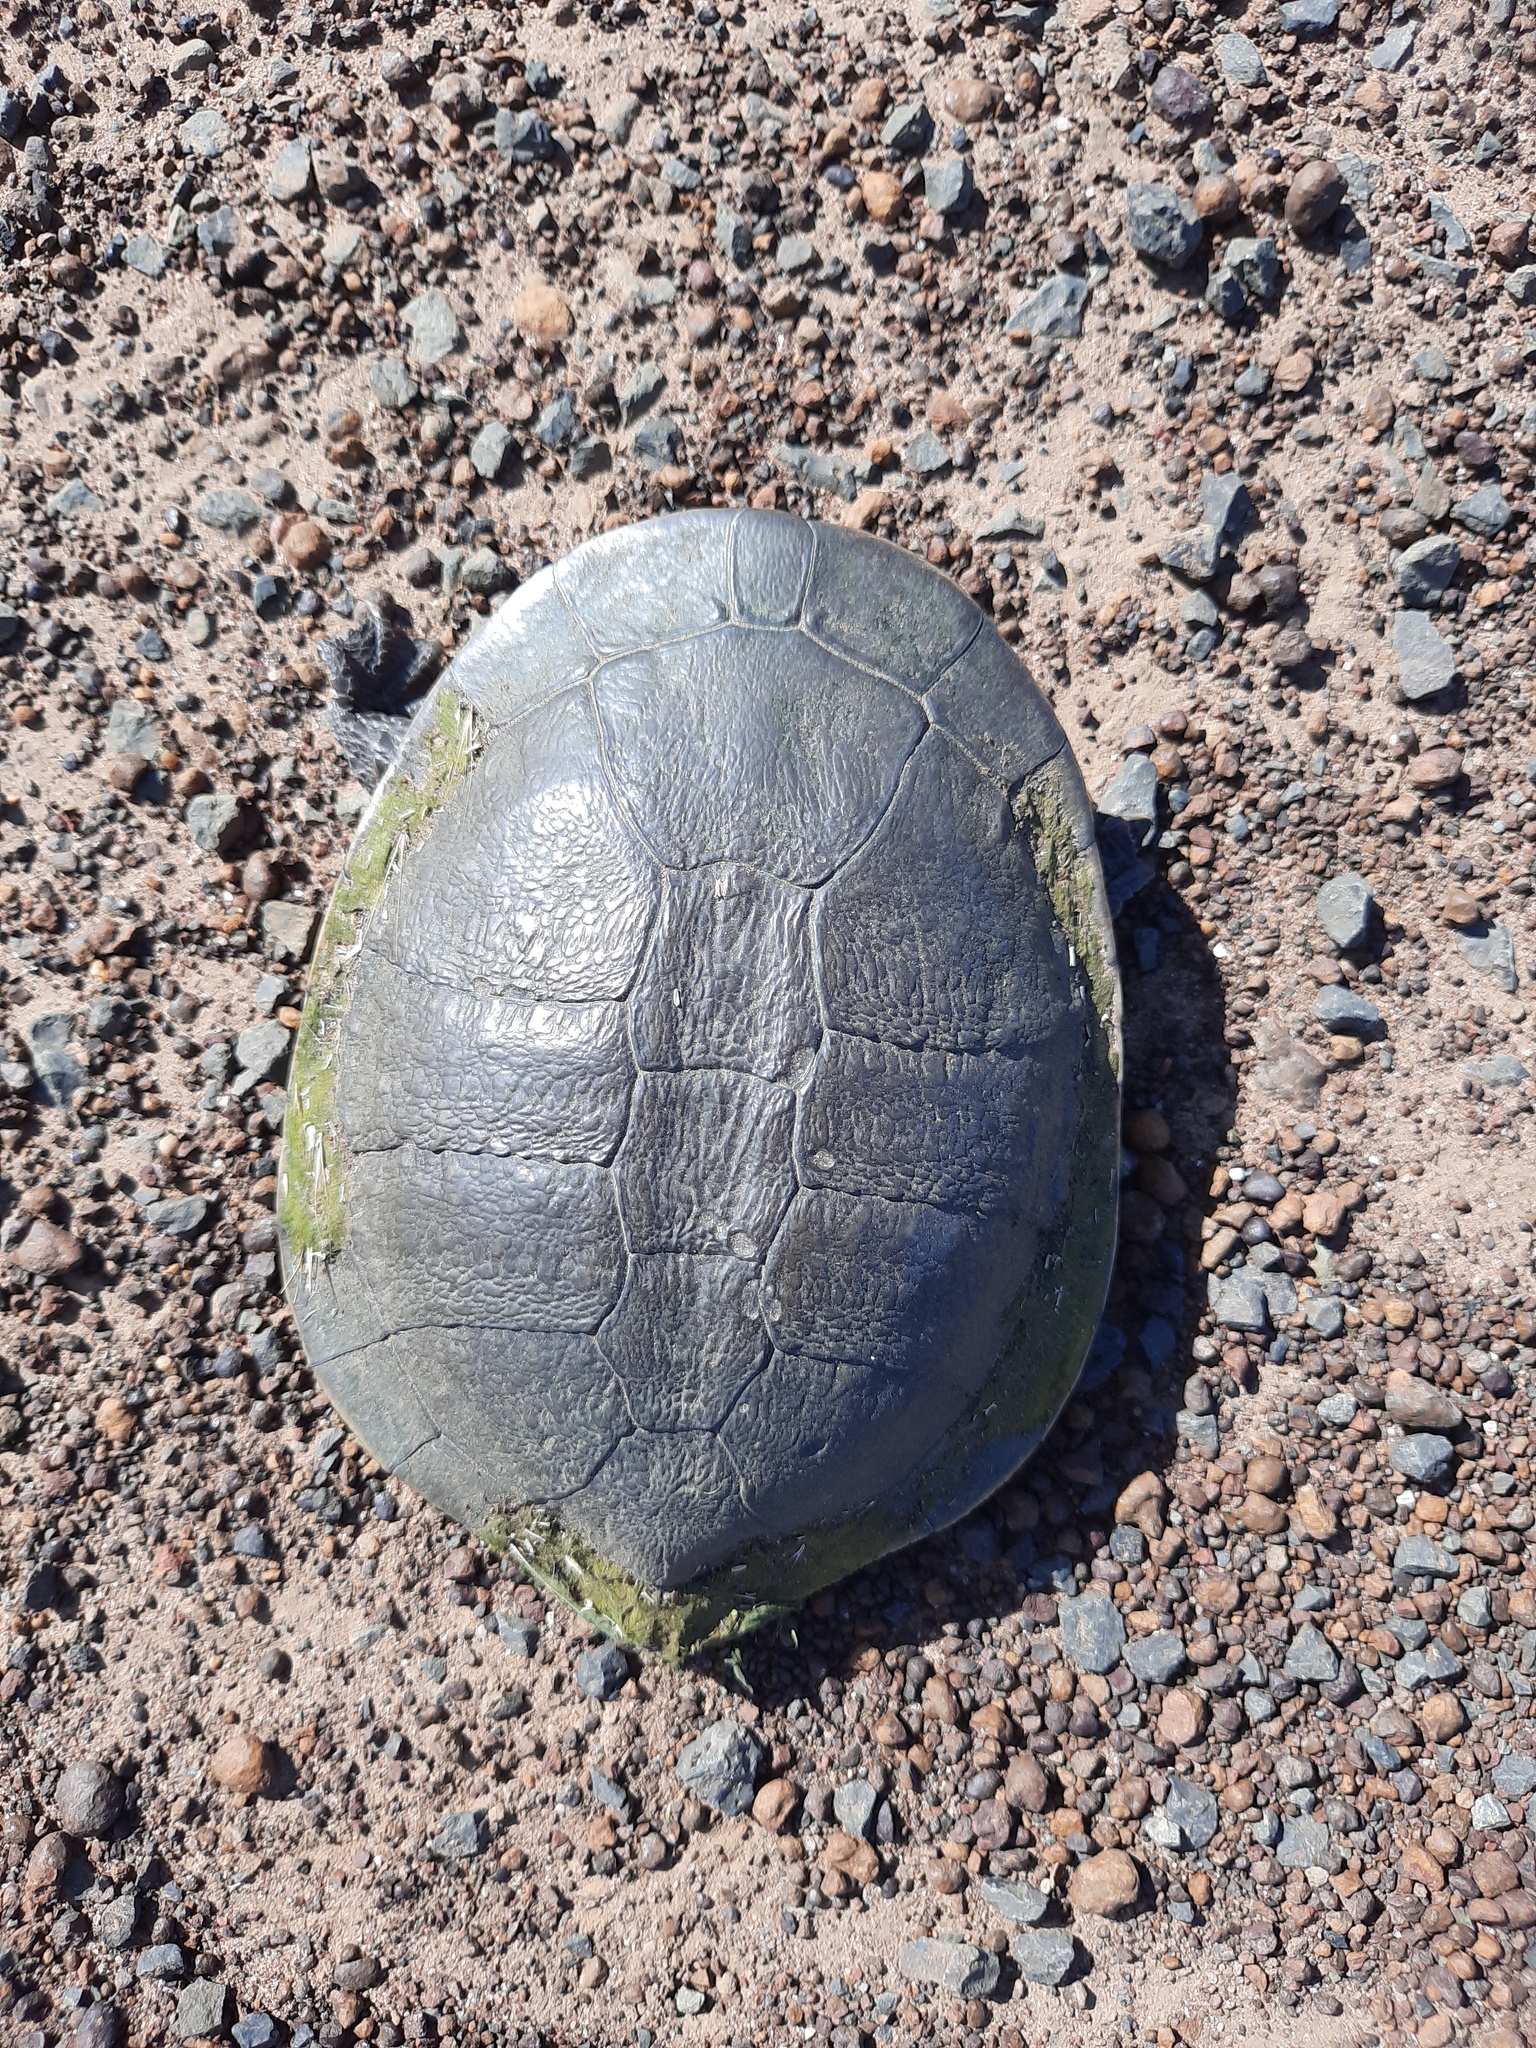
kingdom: Animalia
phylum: Chordata
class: Testudines
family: Chelidae
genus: Chelodina
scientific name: Chelodina longicollis
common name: Eastern snake-necked turtle
